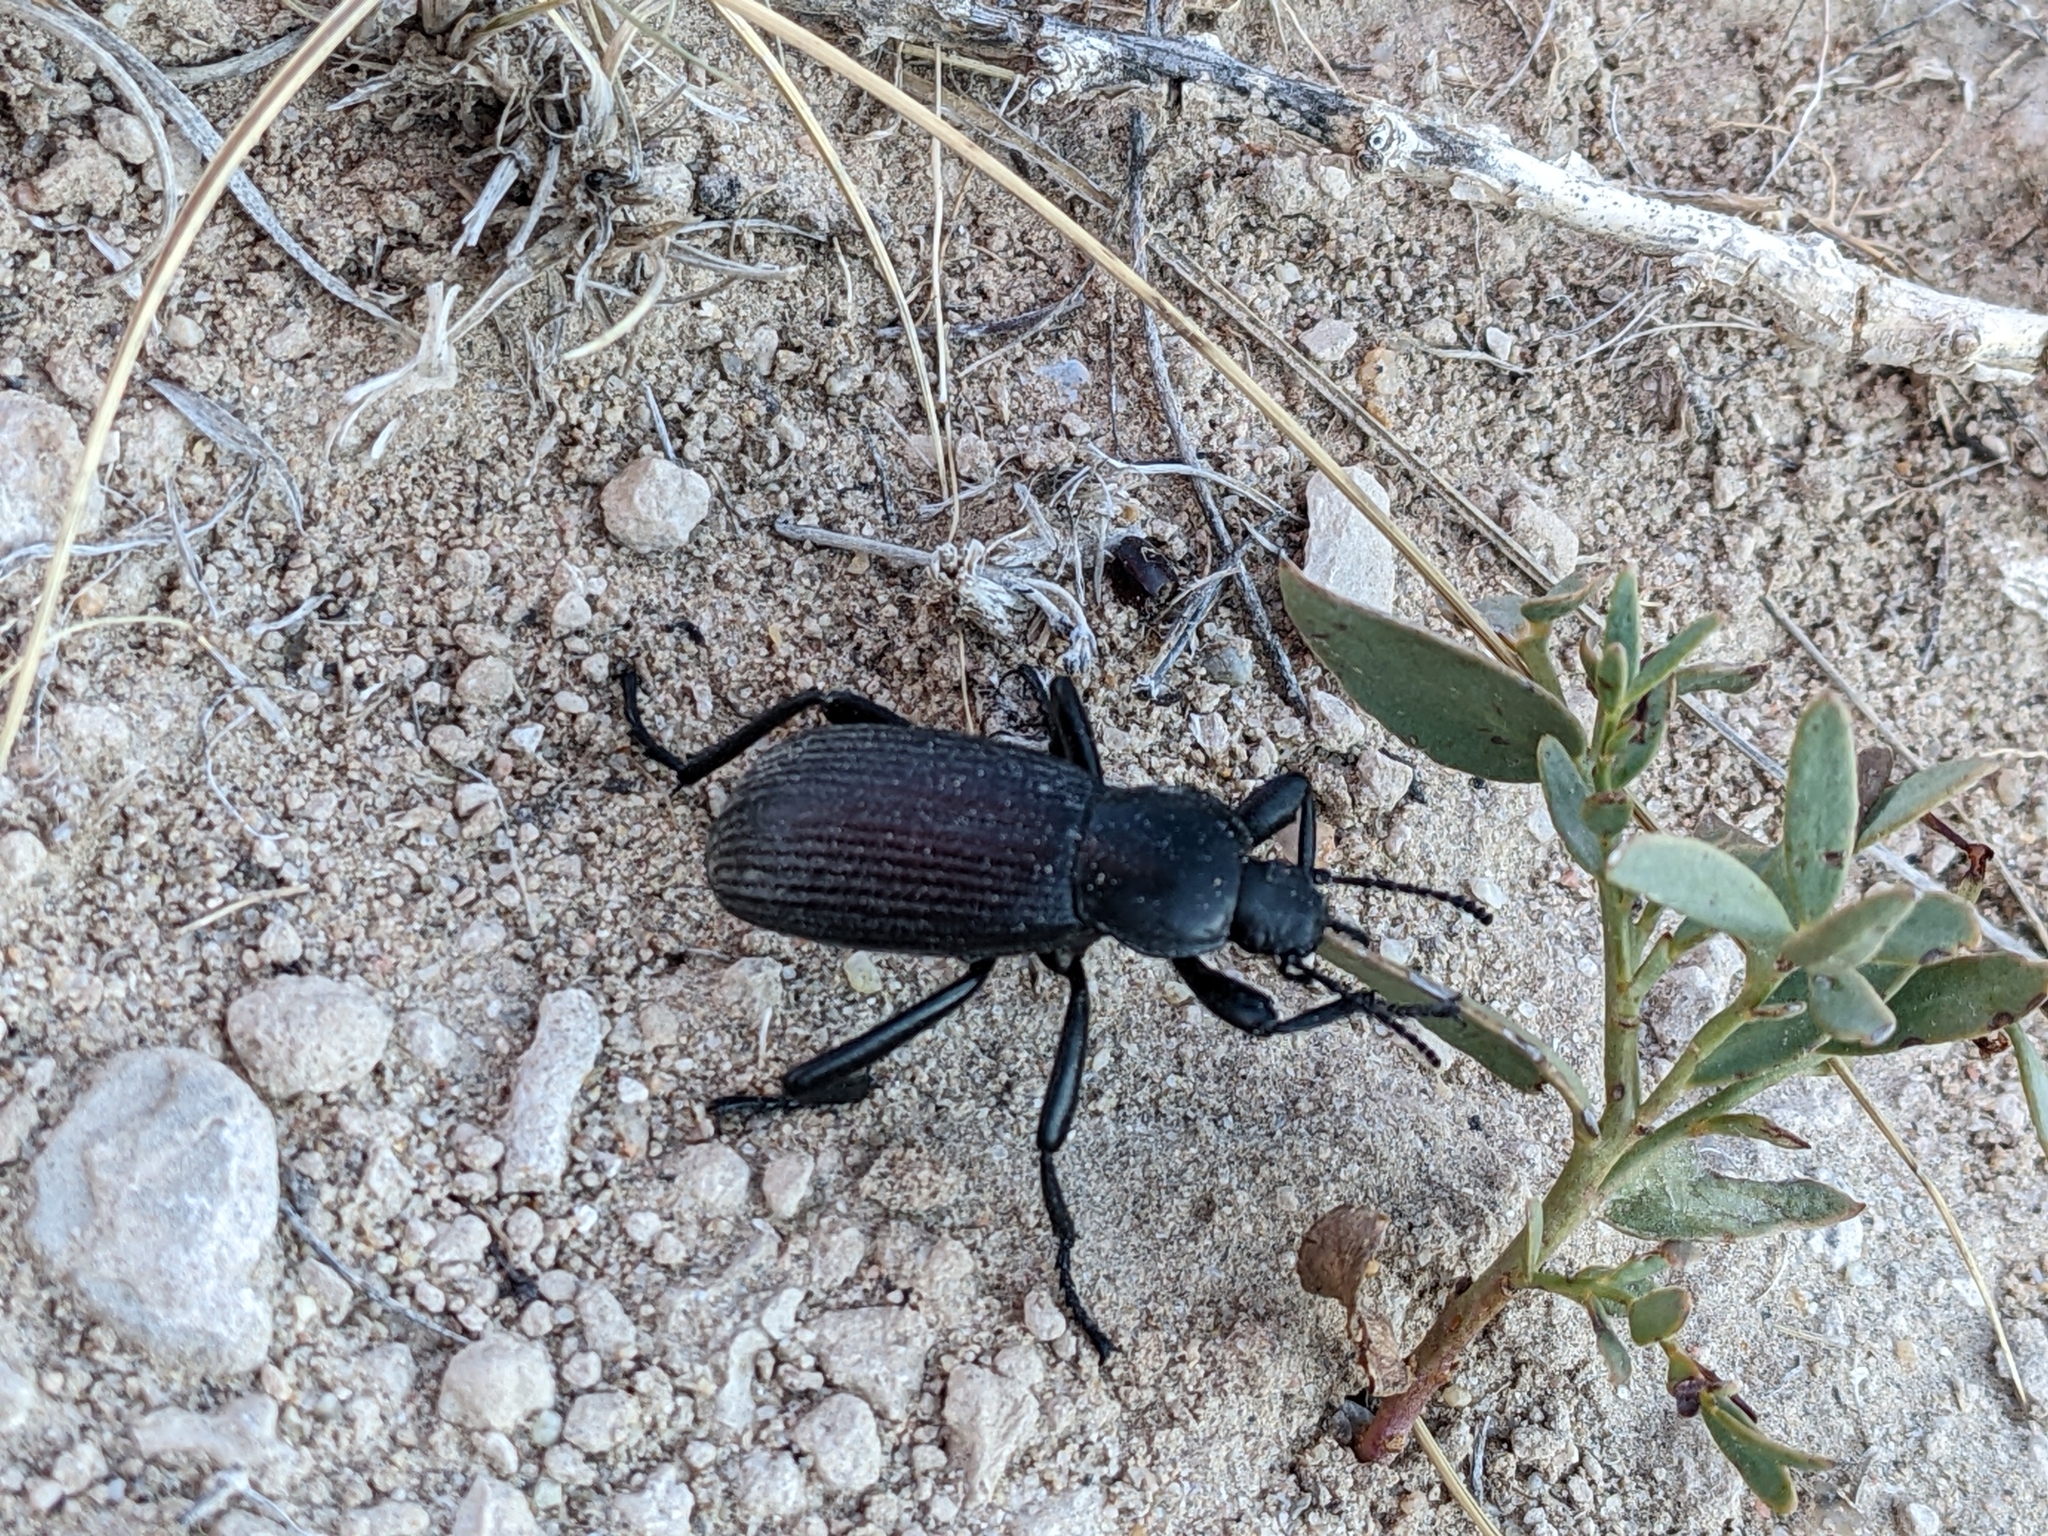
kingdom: Animalia
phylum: Arthropoda
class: Insecta
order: Coleoptera
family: Tenebrionidae
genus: Eleodes
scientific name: Eleodes obscura
